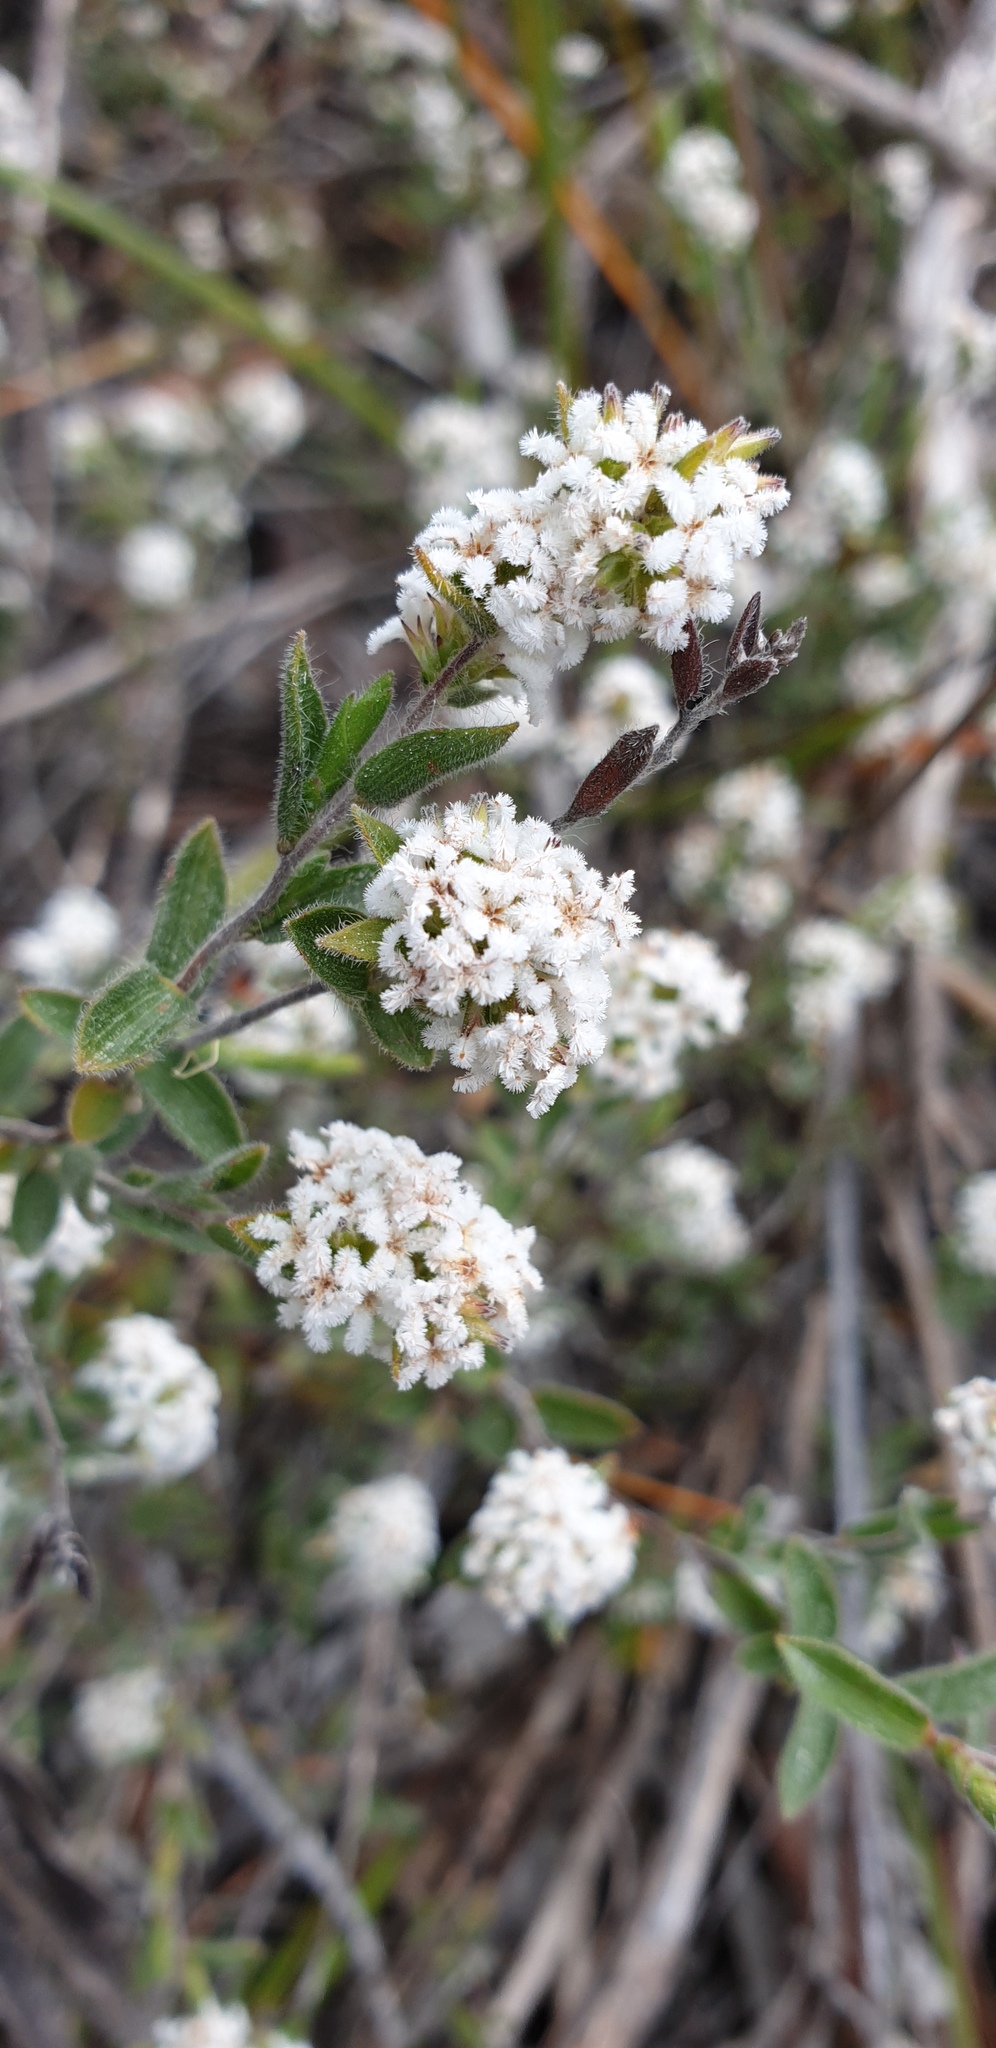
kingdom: Plantae
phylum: Tracheophyta
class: Magnoliopsida
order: Ericales
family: Ericaceae
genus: Leucopogon
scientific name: Leucopogon concurvus
